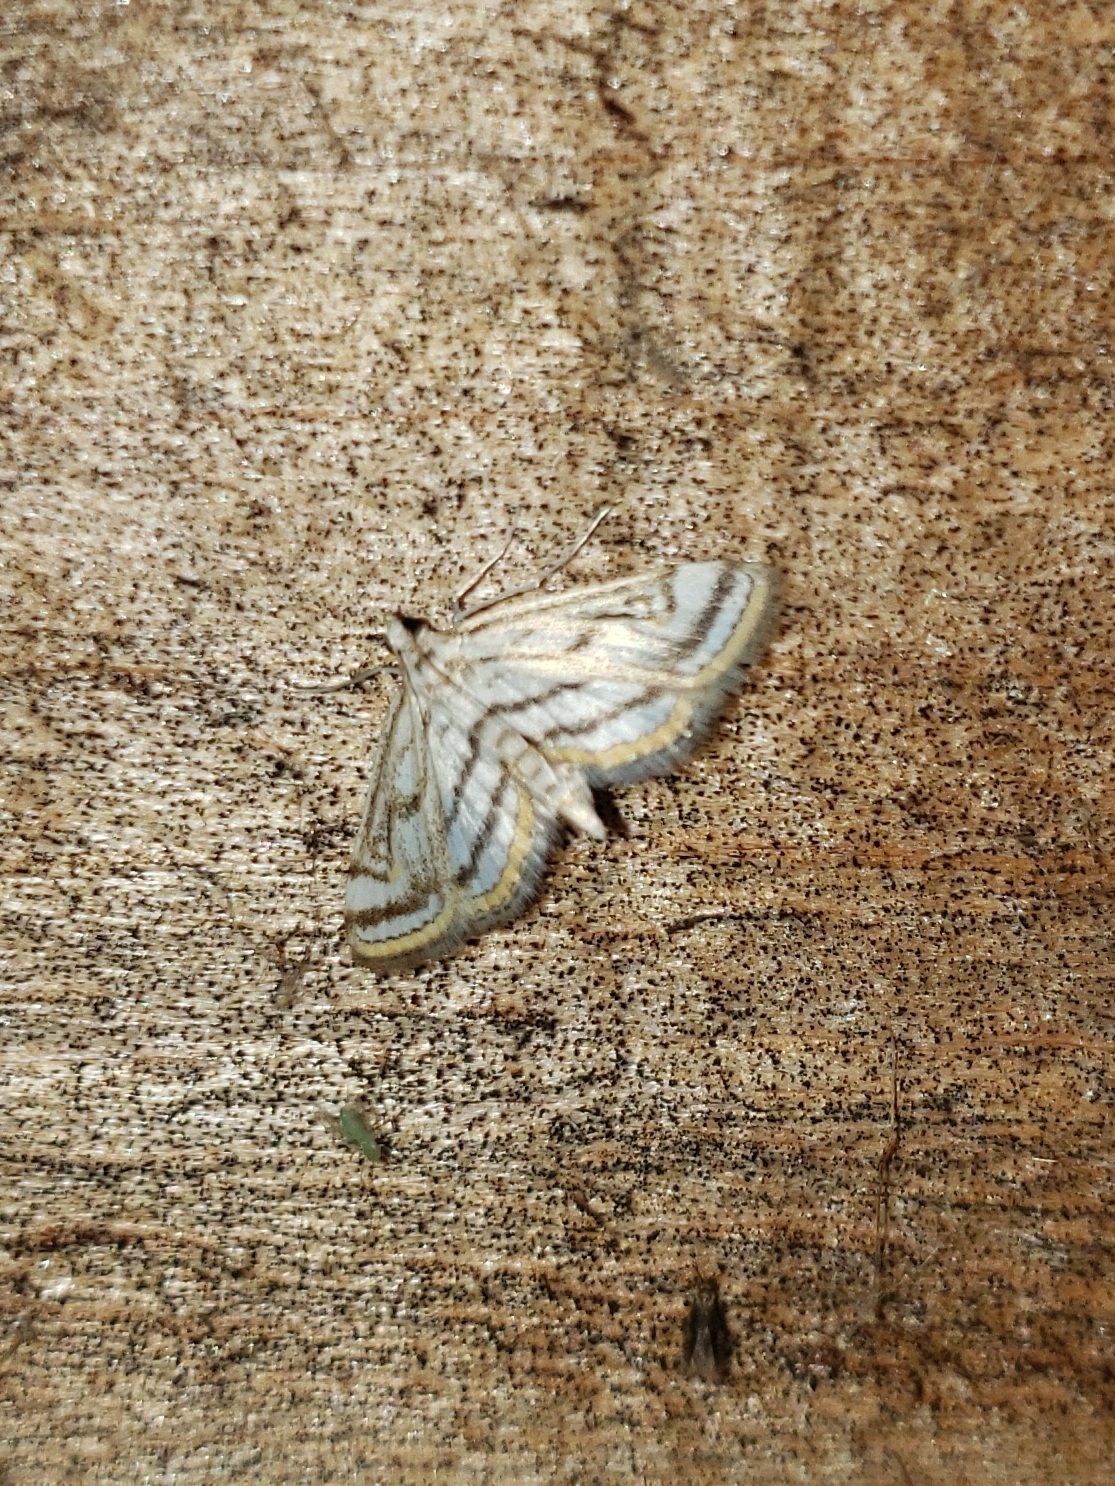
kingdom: Animalia
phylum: Arthropoda
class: Insecta
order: Lepidoptera
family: Crambidae
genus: Parapoynx
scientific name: Parapoynx badiusalis
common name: Chestnut-marked pondweed moth
